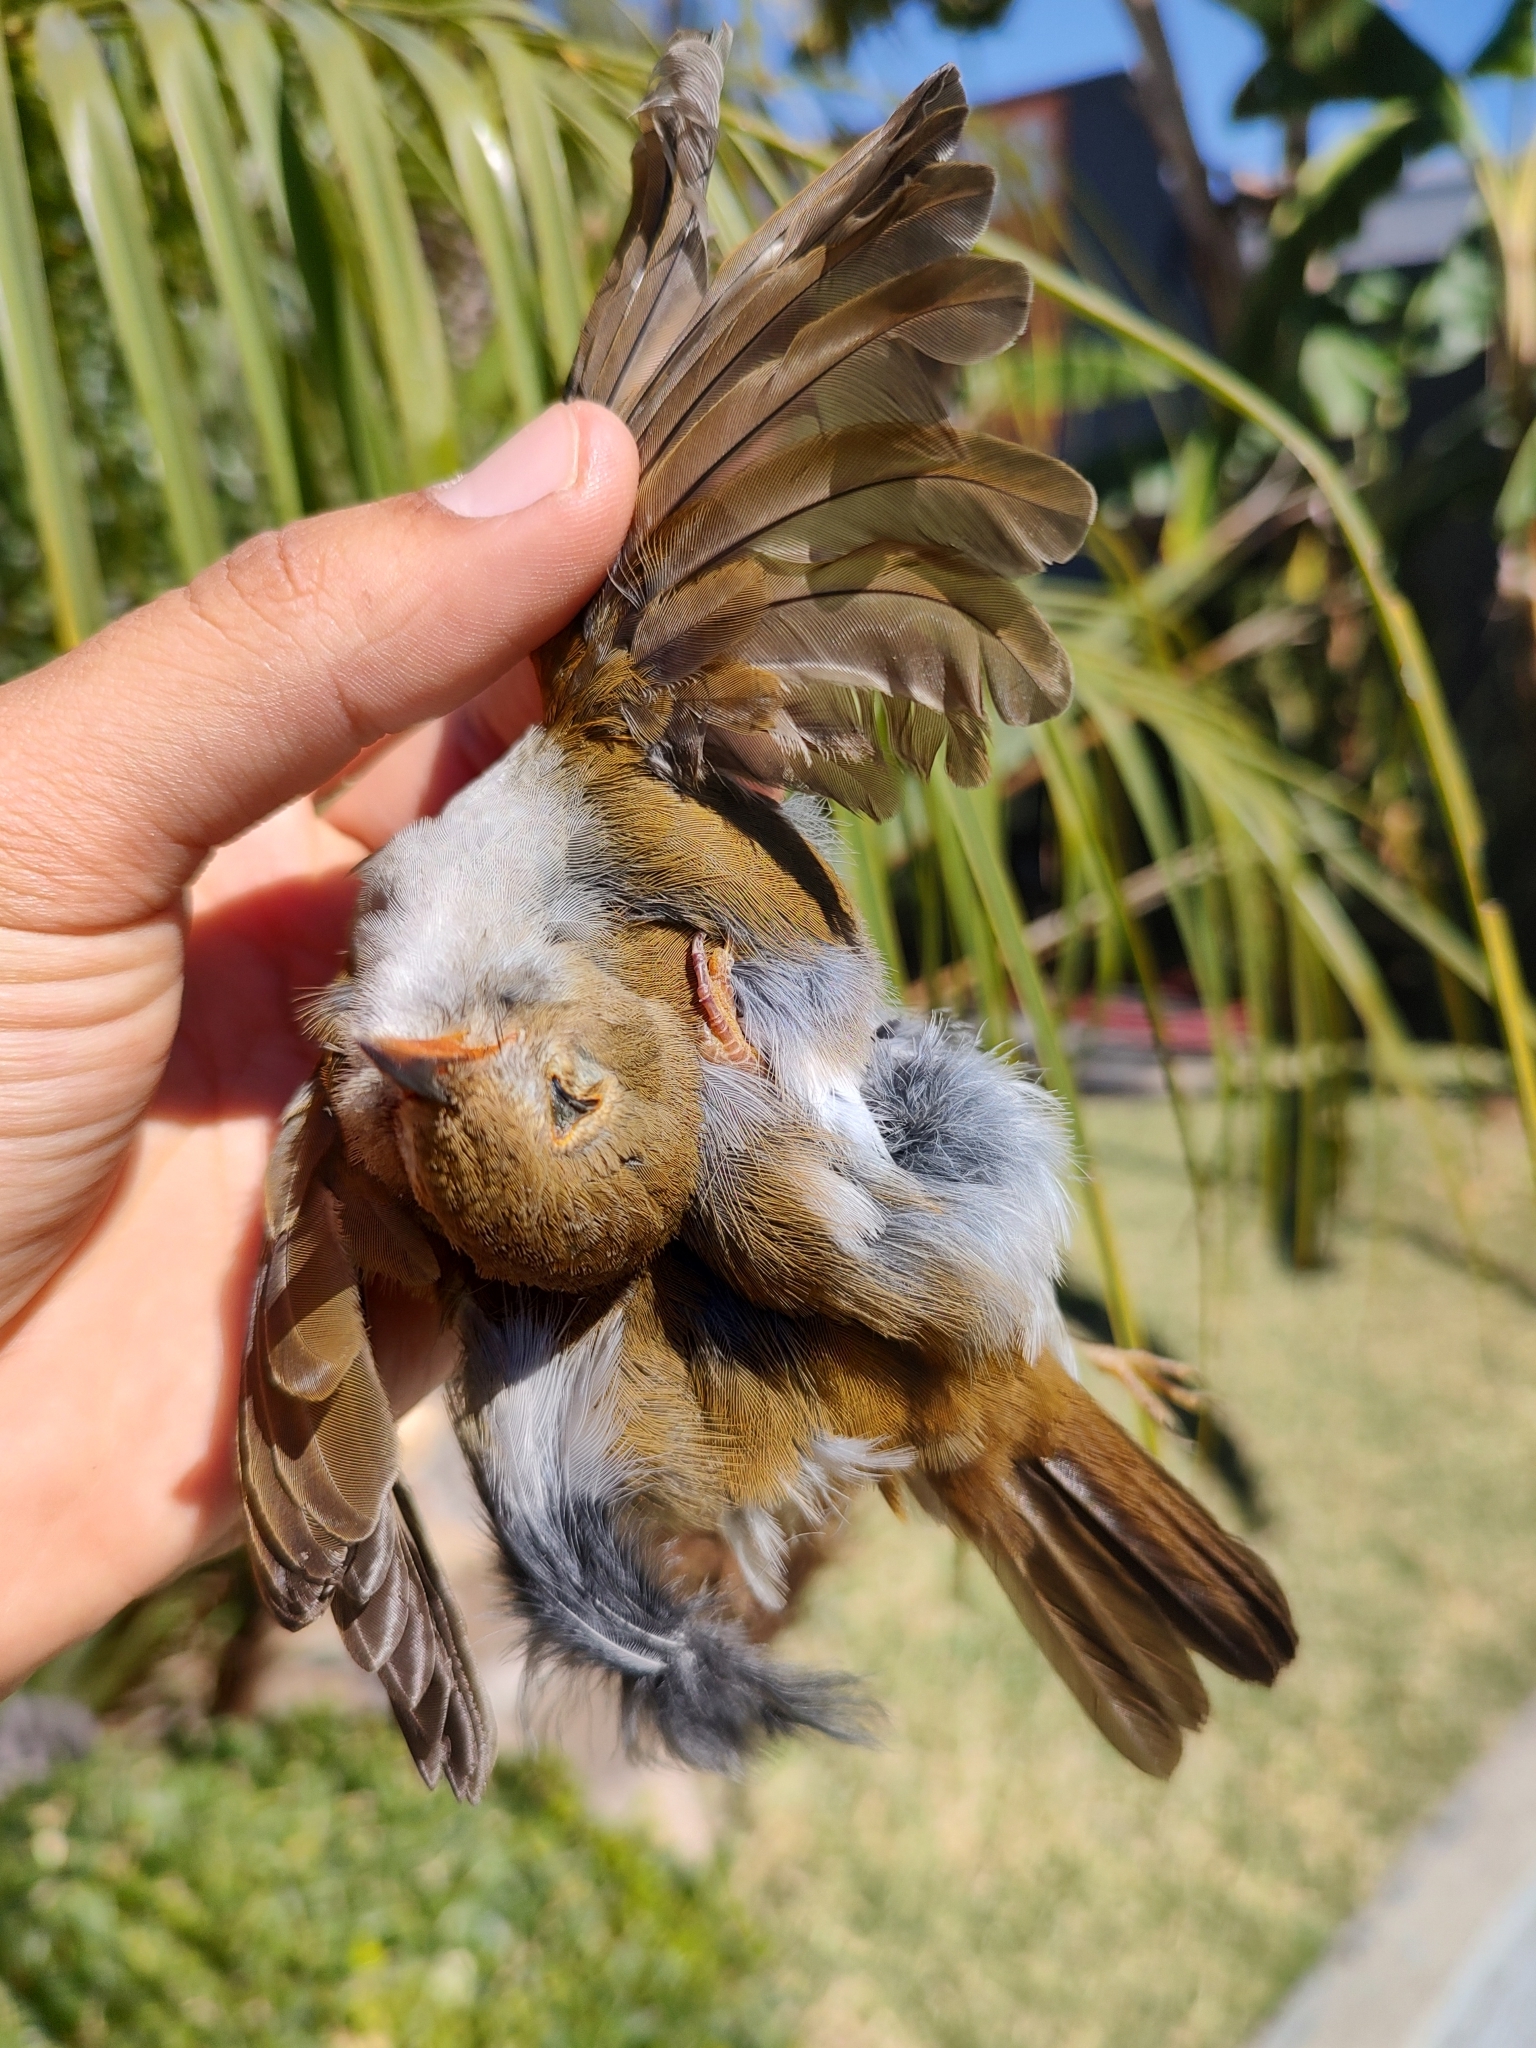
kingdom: Animalia
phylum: Chordata
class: Aves
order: Passeriformes
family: Turdidae
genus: Catharus
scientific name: Catharus aurantiirostris
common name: Orange-billed nightingale-thrush
